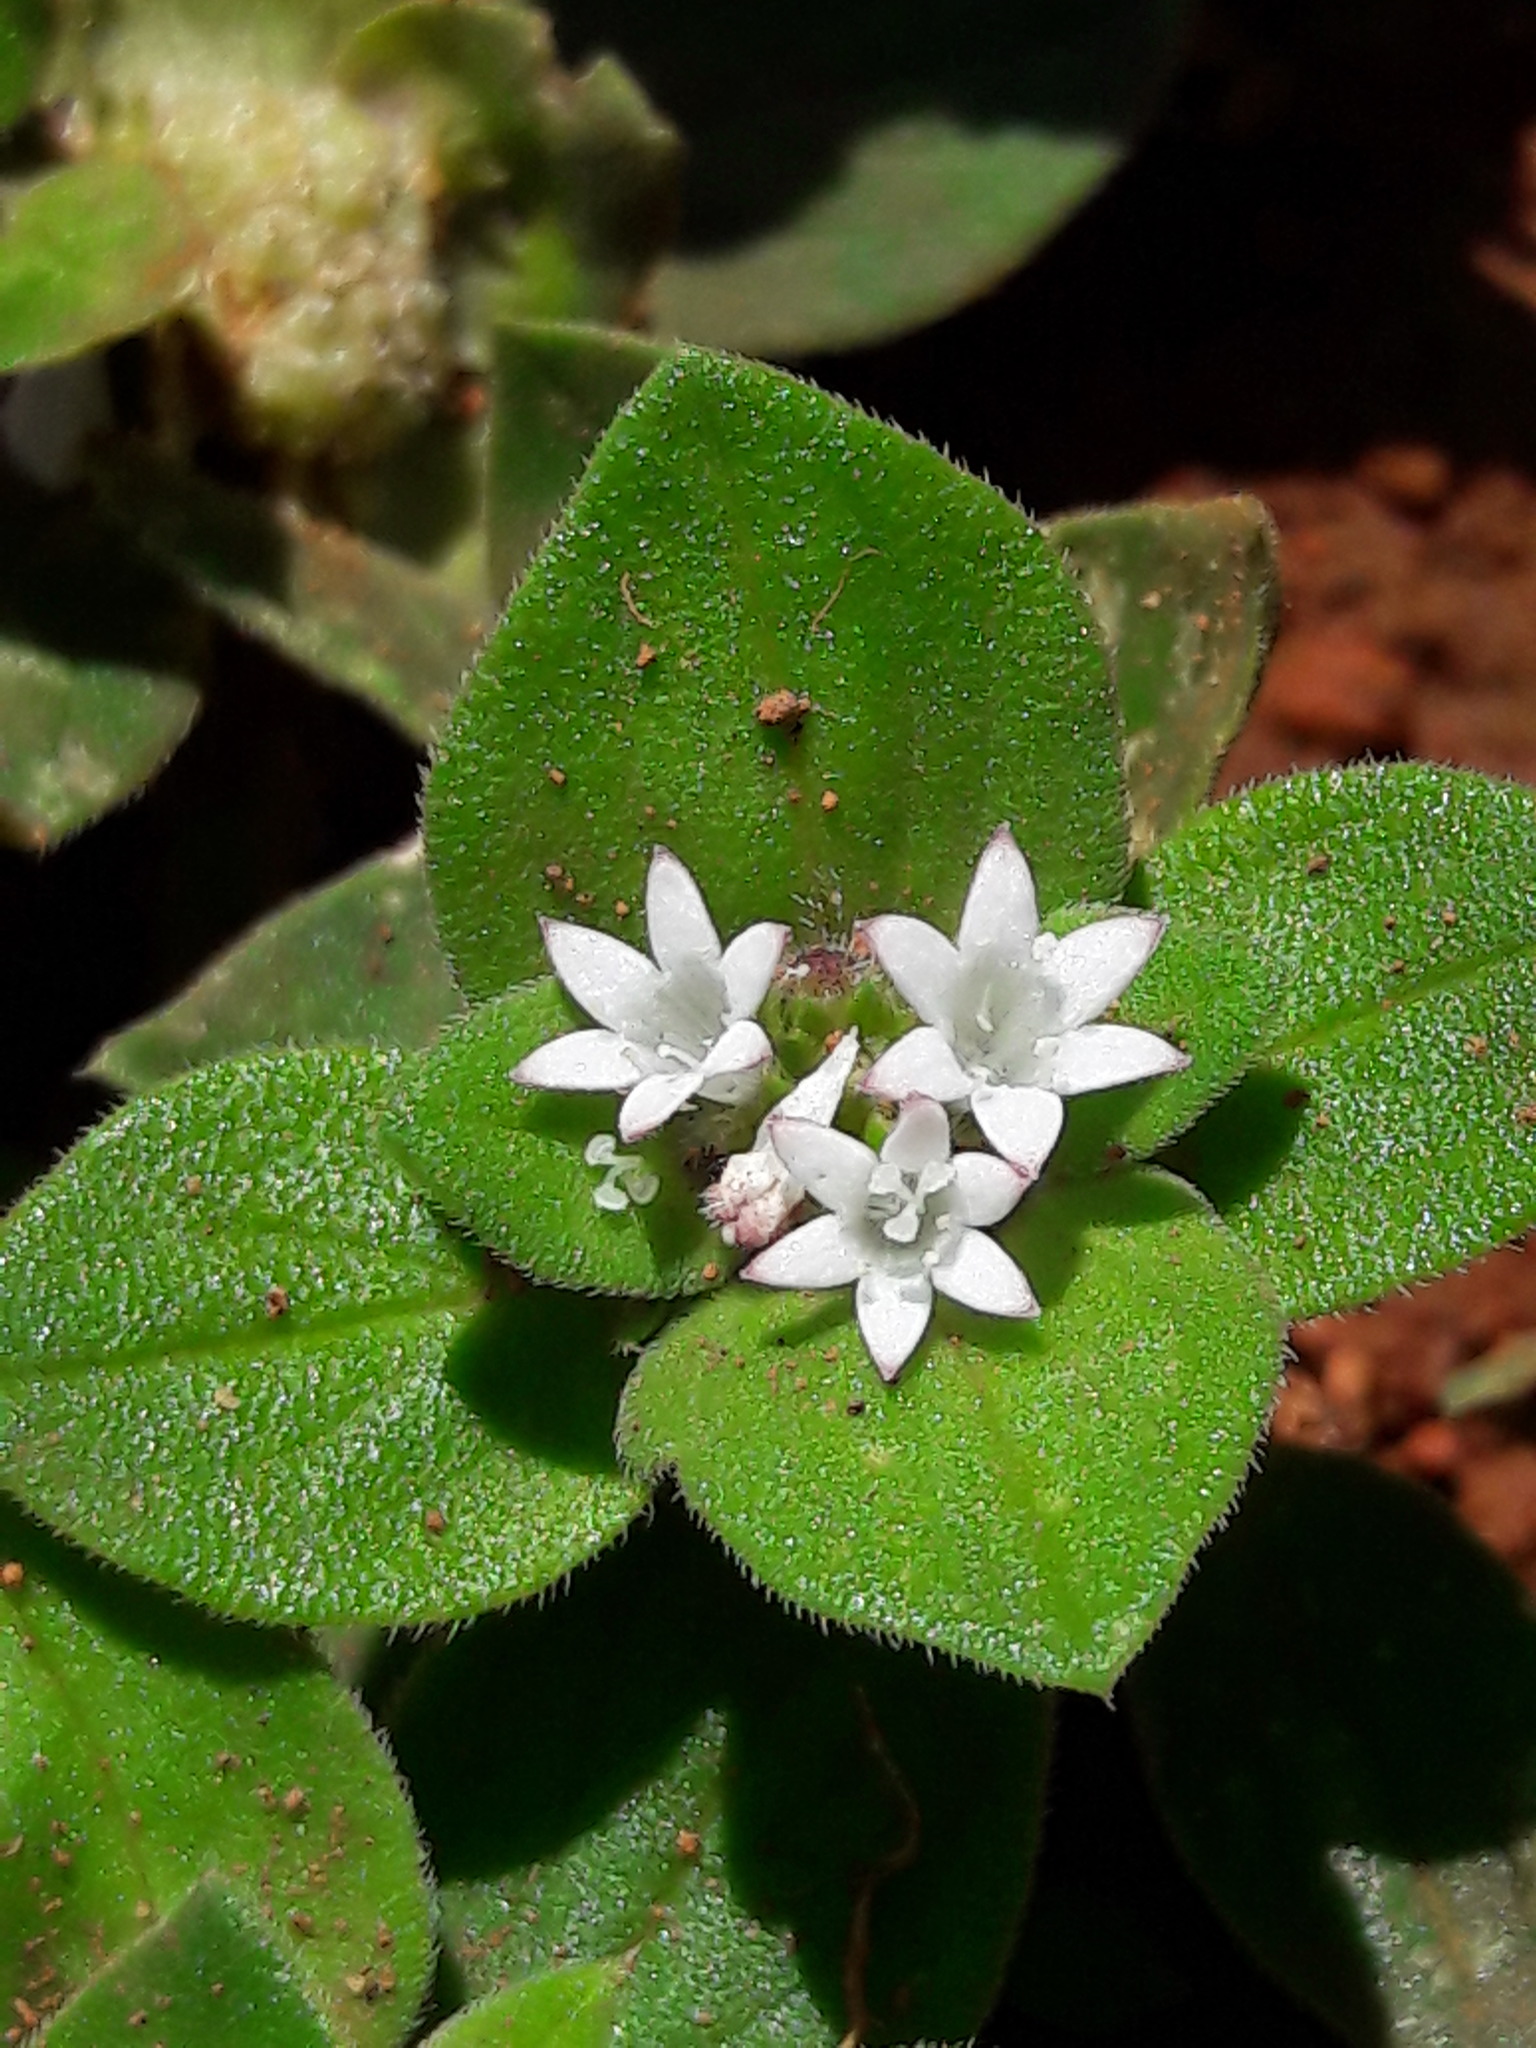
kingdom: Plantae
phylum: Tracheophyta
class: Magnoliopsida
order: Gentianales
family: Rubiaceae
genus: Richardia
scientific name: Richardia brasiliensis
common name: Tropical mexican clover
